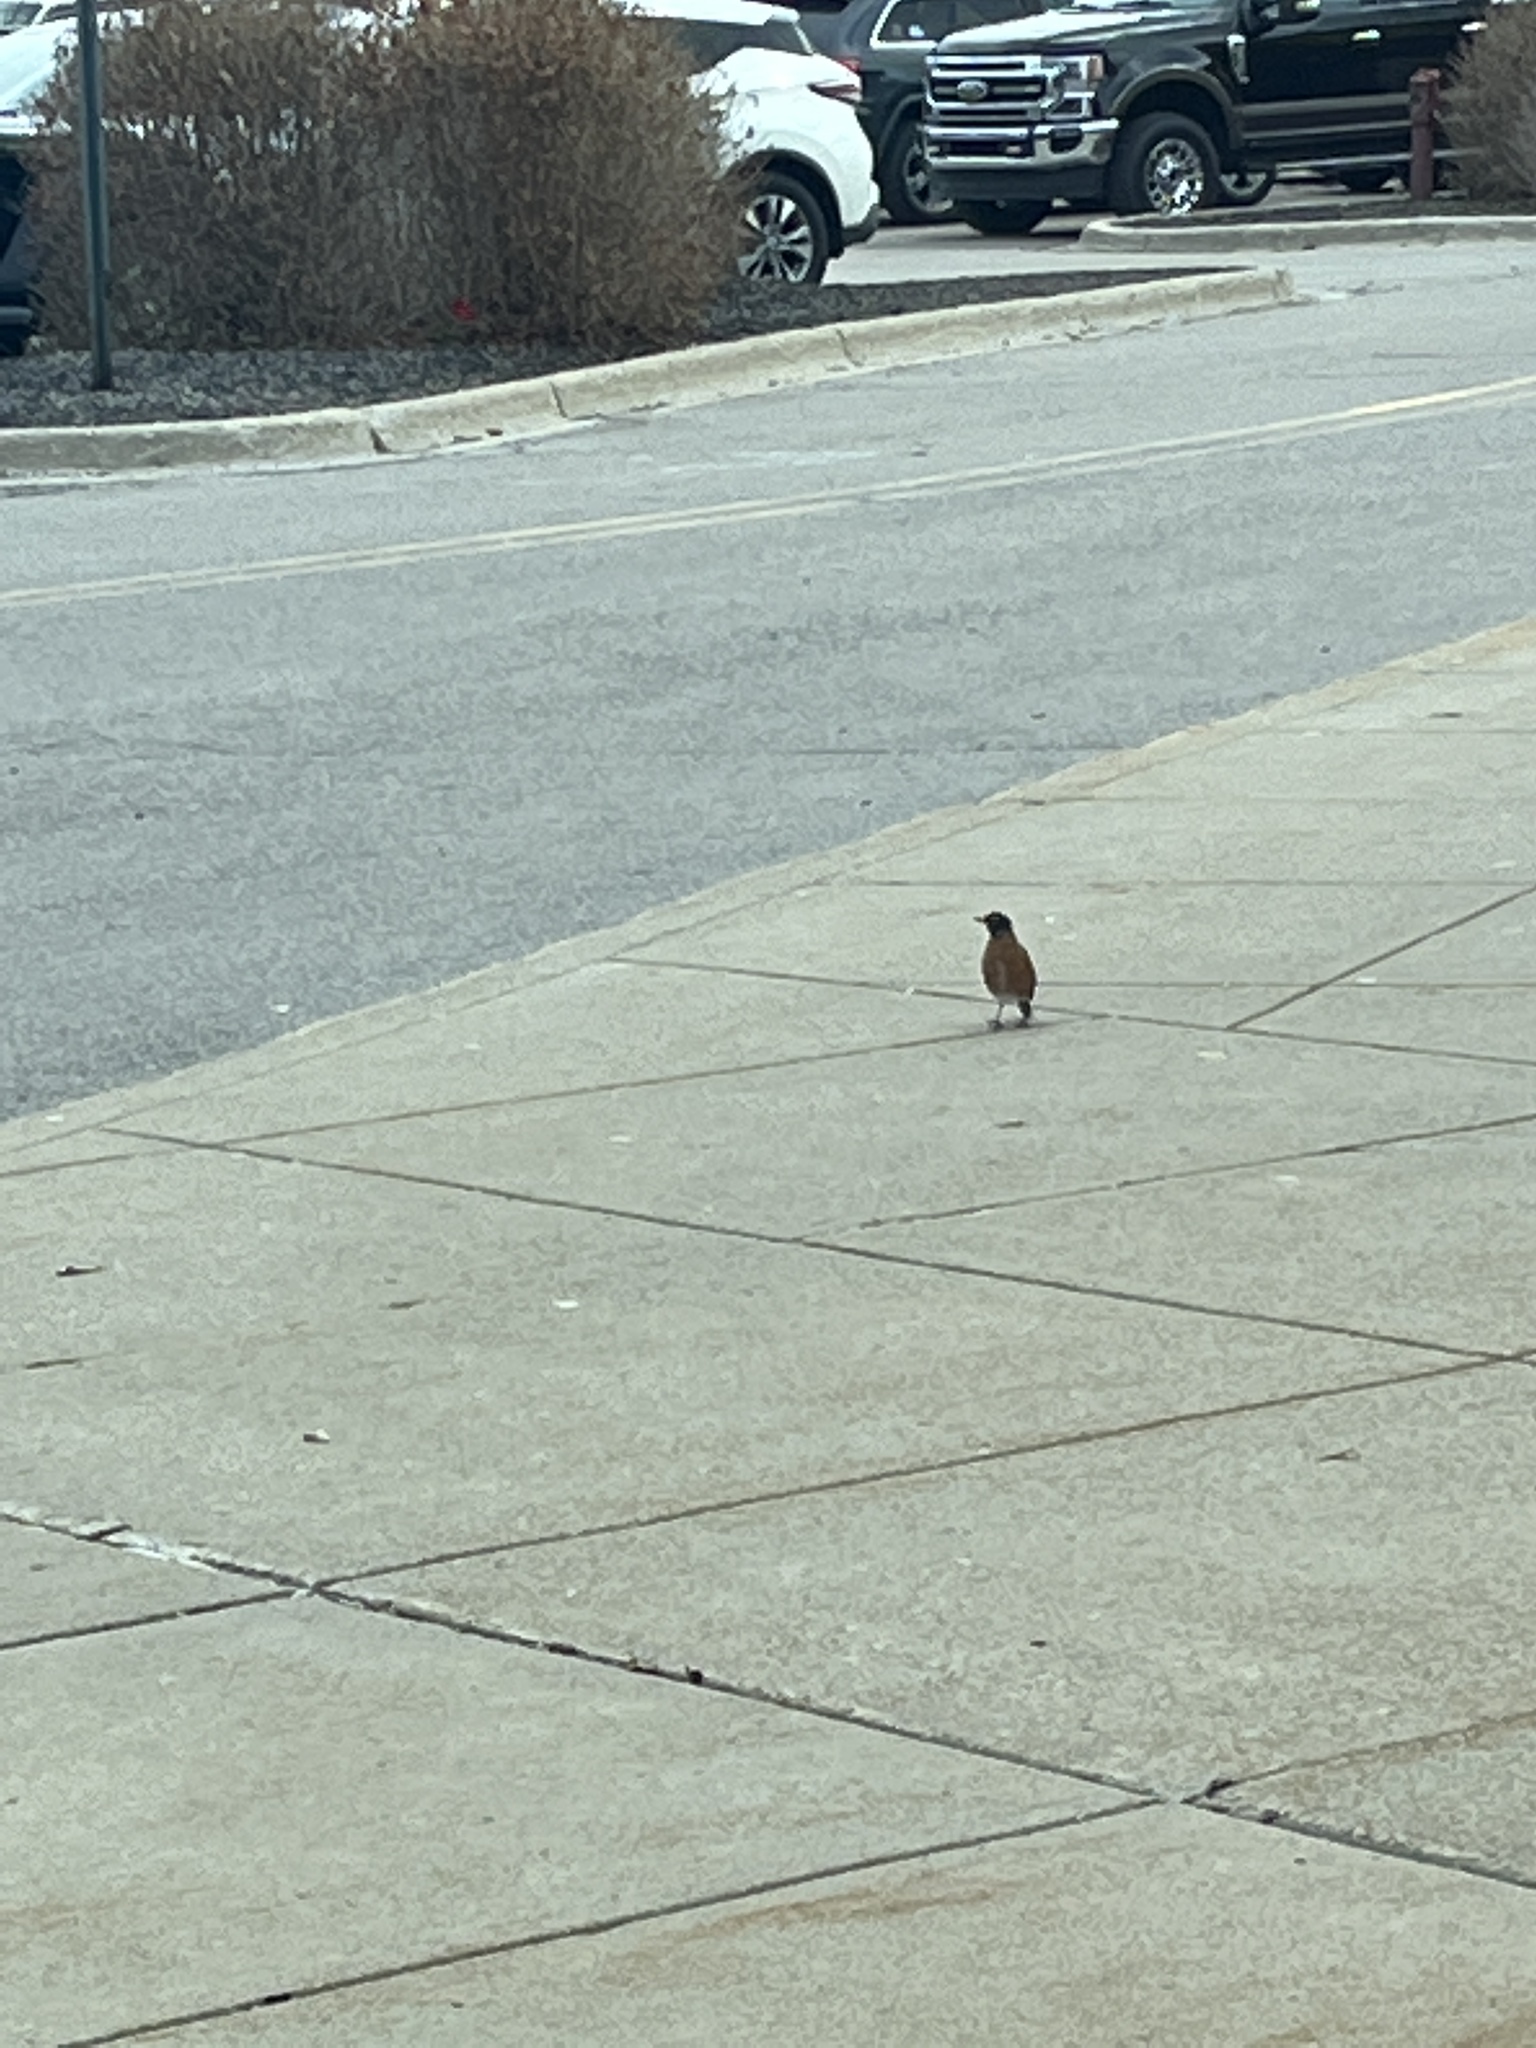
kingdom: Animalia
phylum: Chordata
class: Aves
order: Passeriformes
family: Turdidae
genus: Turdus
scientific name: Turdus migratorius
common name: American robin
